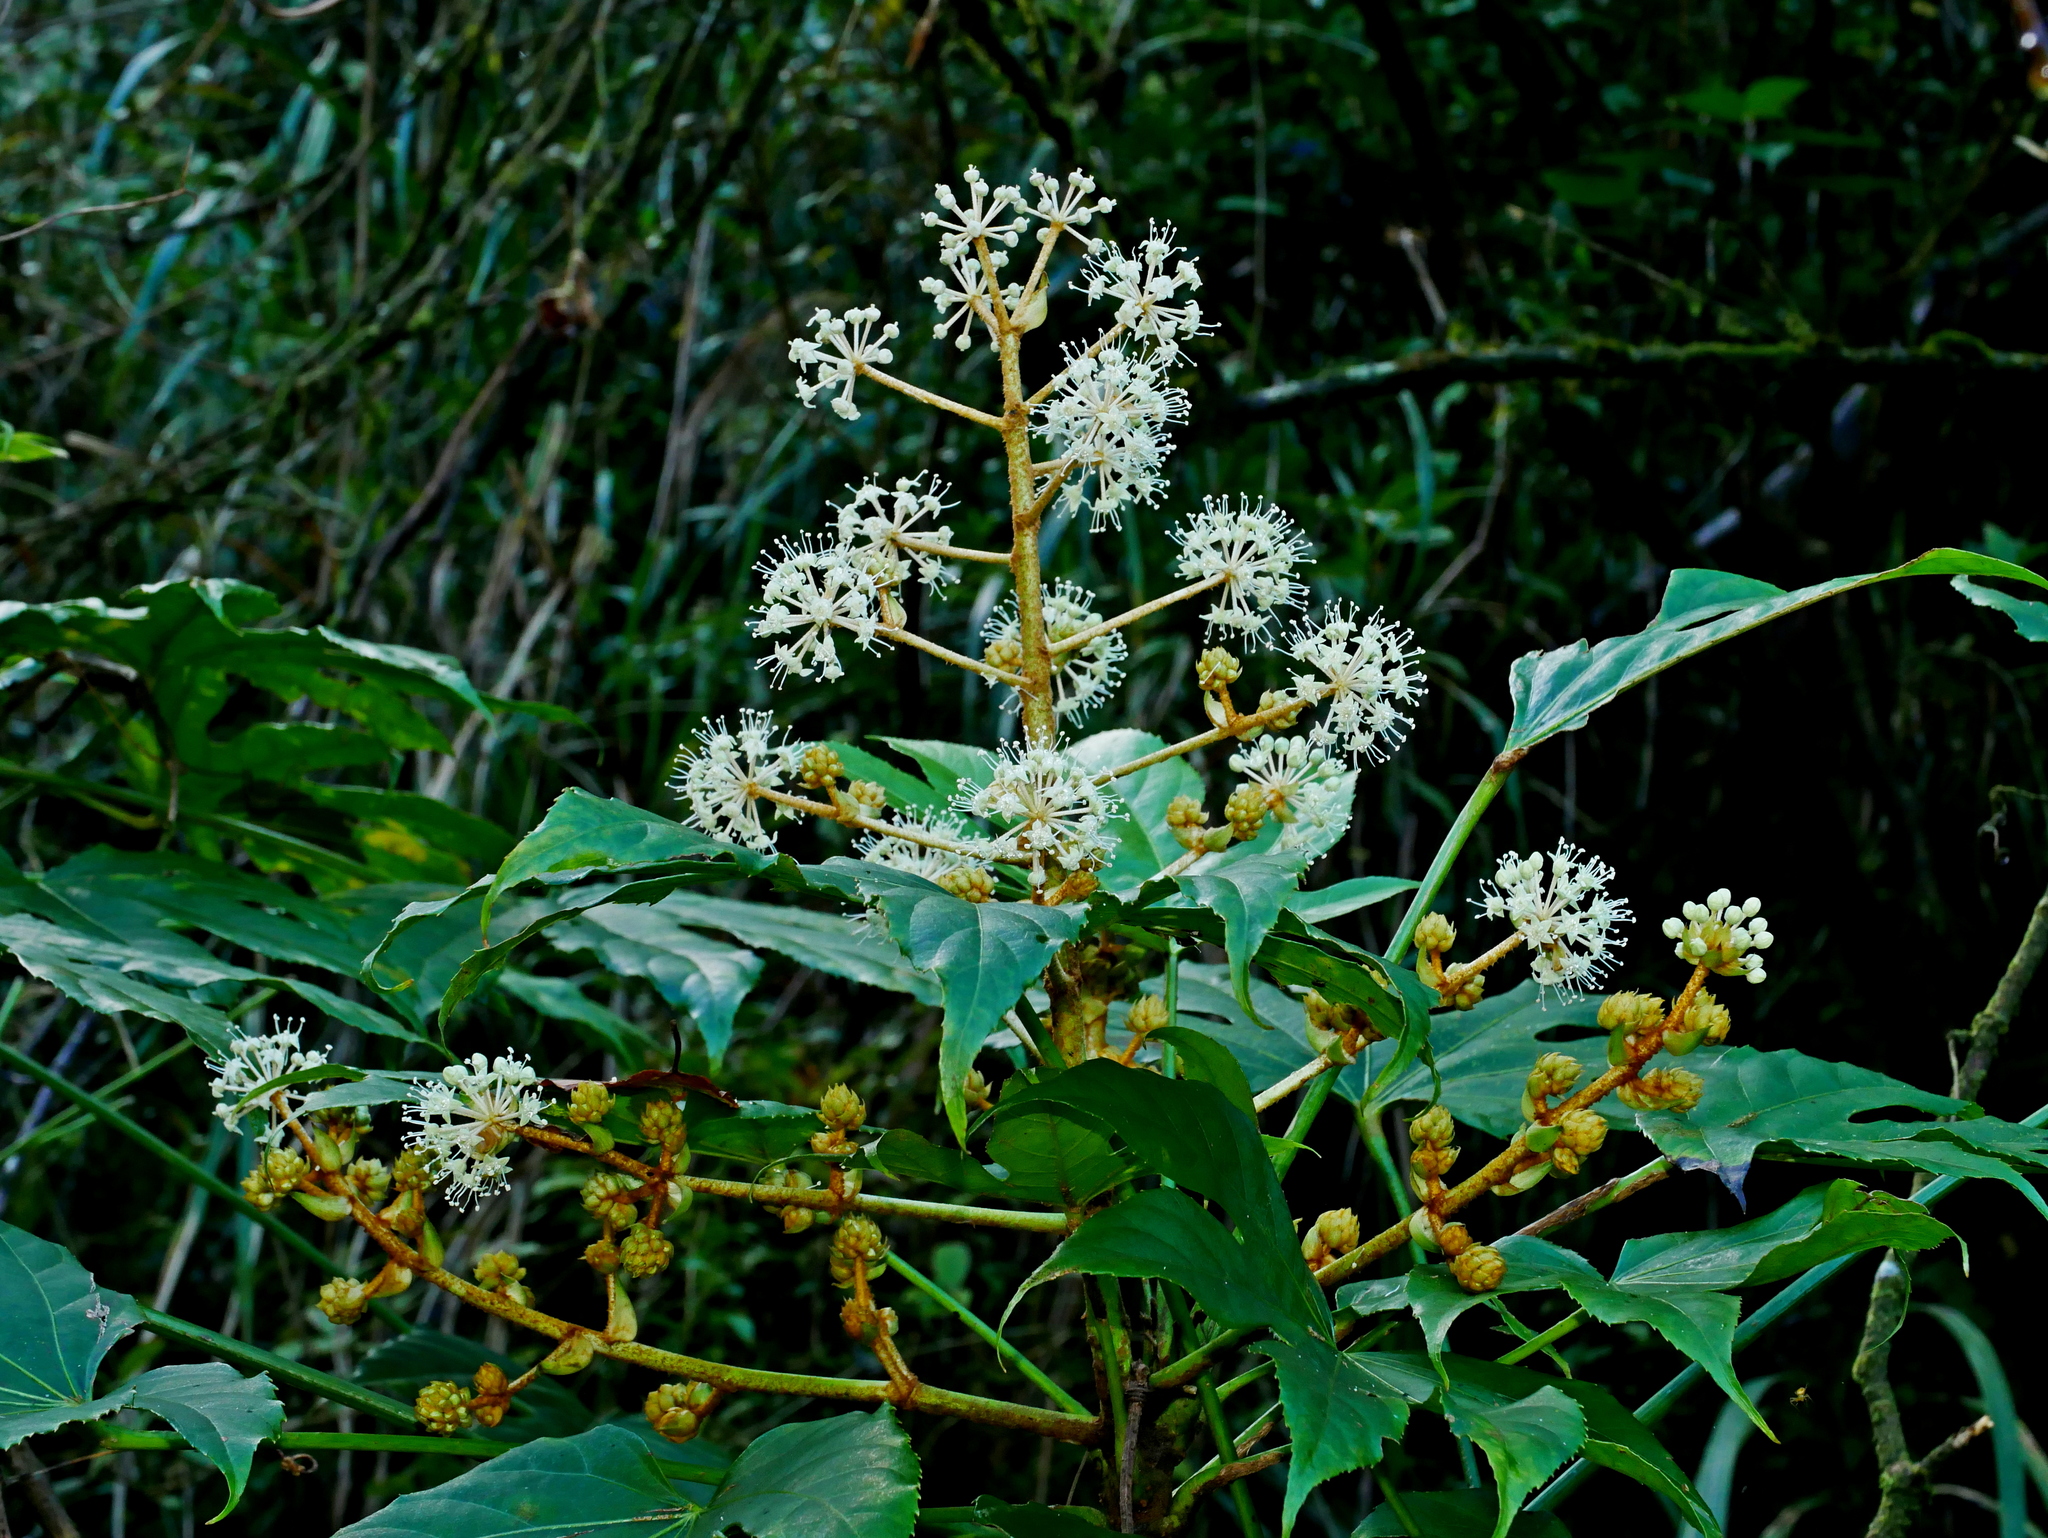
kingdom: Plantae
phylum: Tracheophyta
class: Magnoliopsida
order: Apiales
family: Araliaceae
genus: Fatsia
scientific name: Fatsia polycarpa
